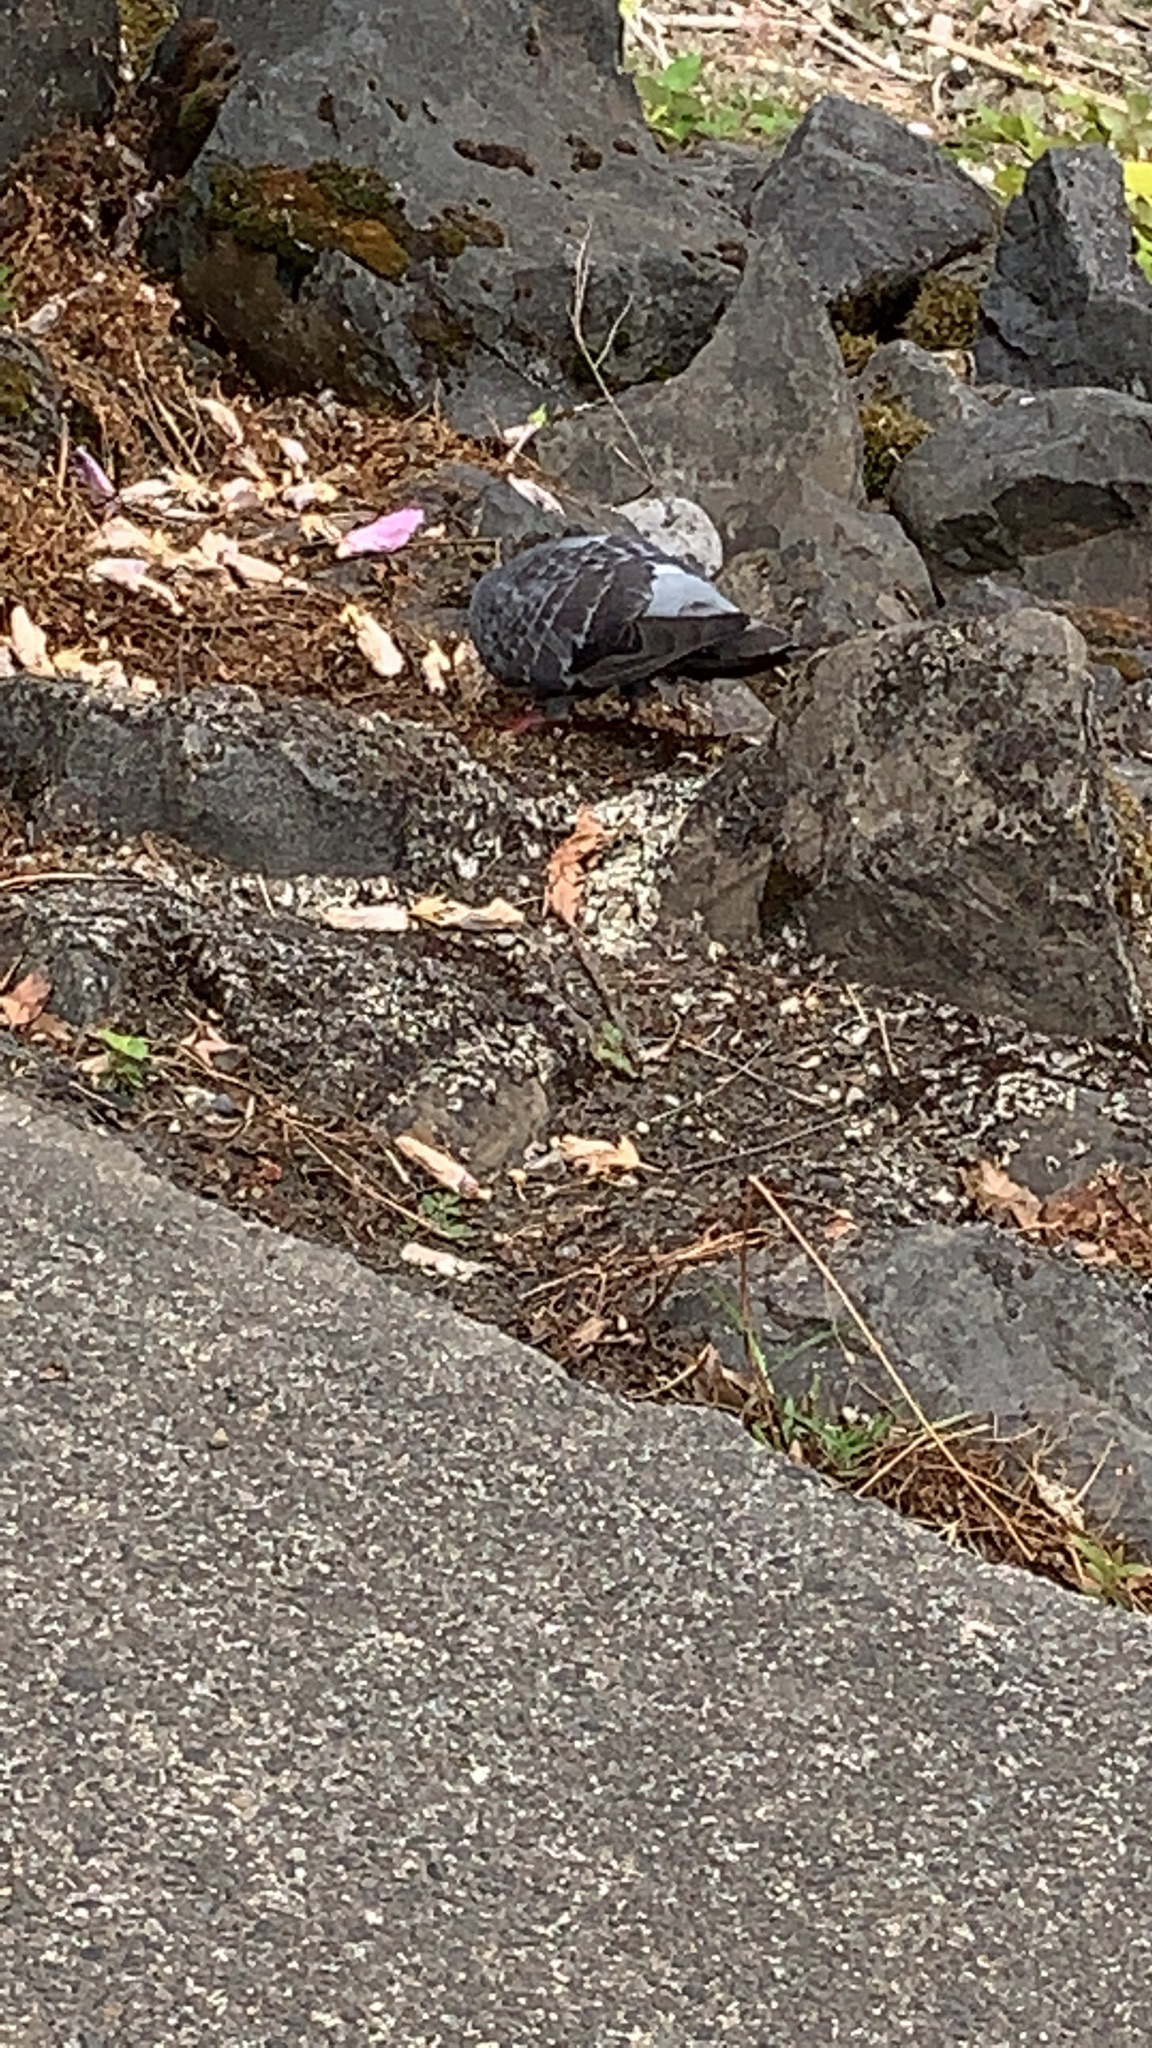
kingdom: Animalia
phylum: Chordata
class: Aves
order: Columbiformes
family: Columbidae
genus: Columba
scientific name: Columba livia
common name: Rock pigeon
